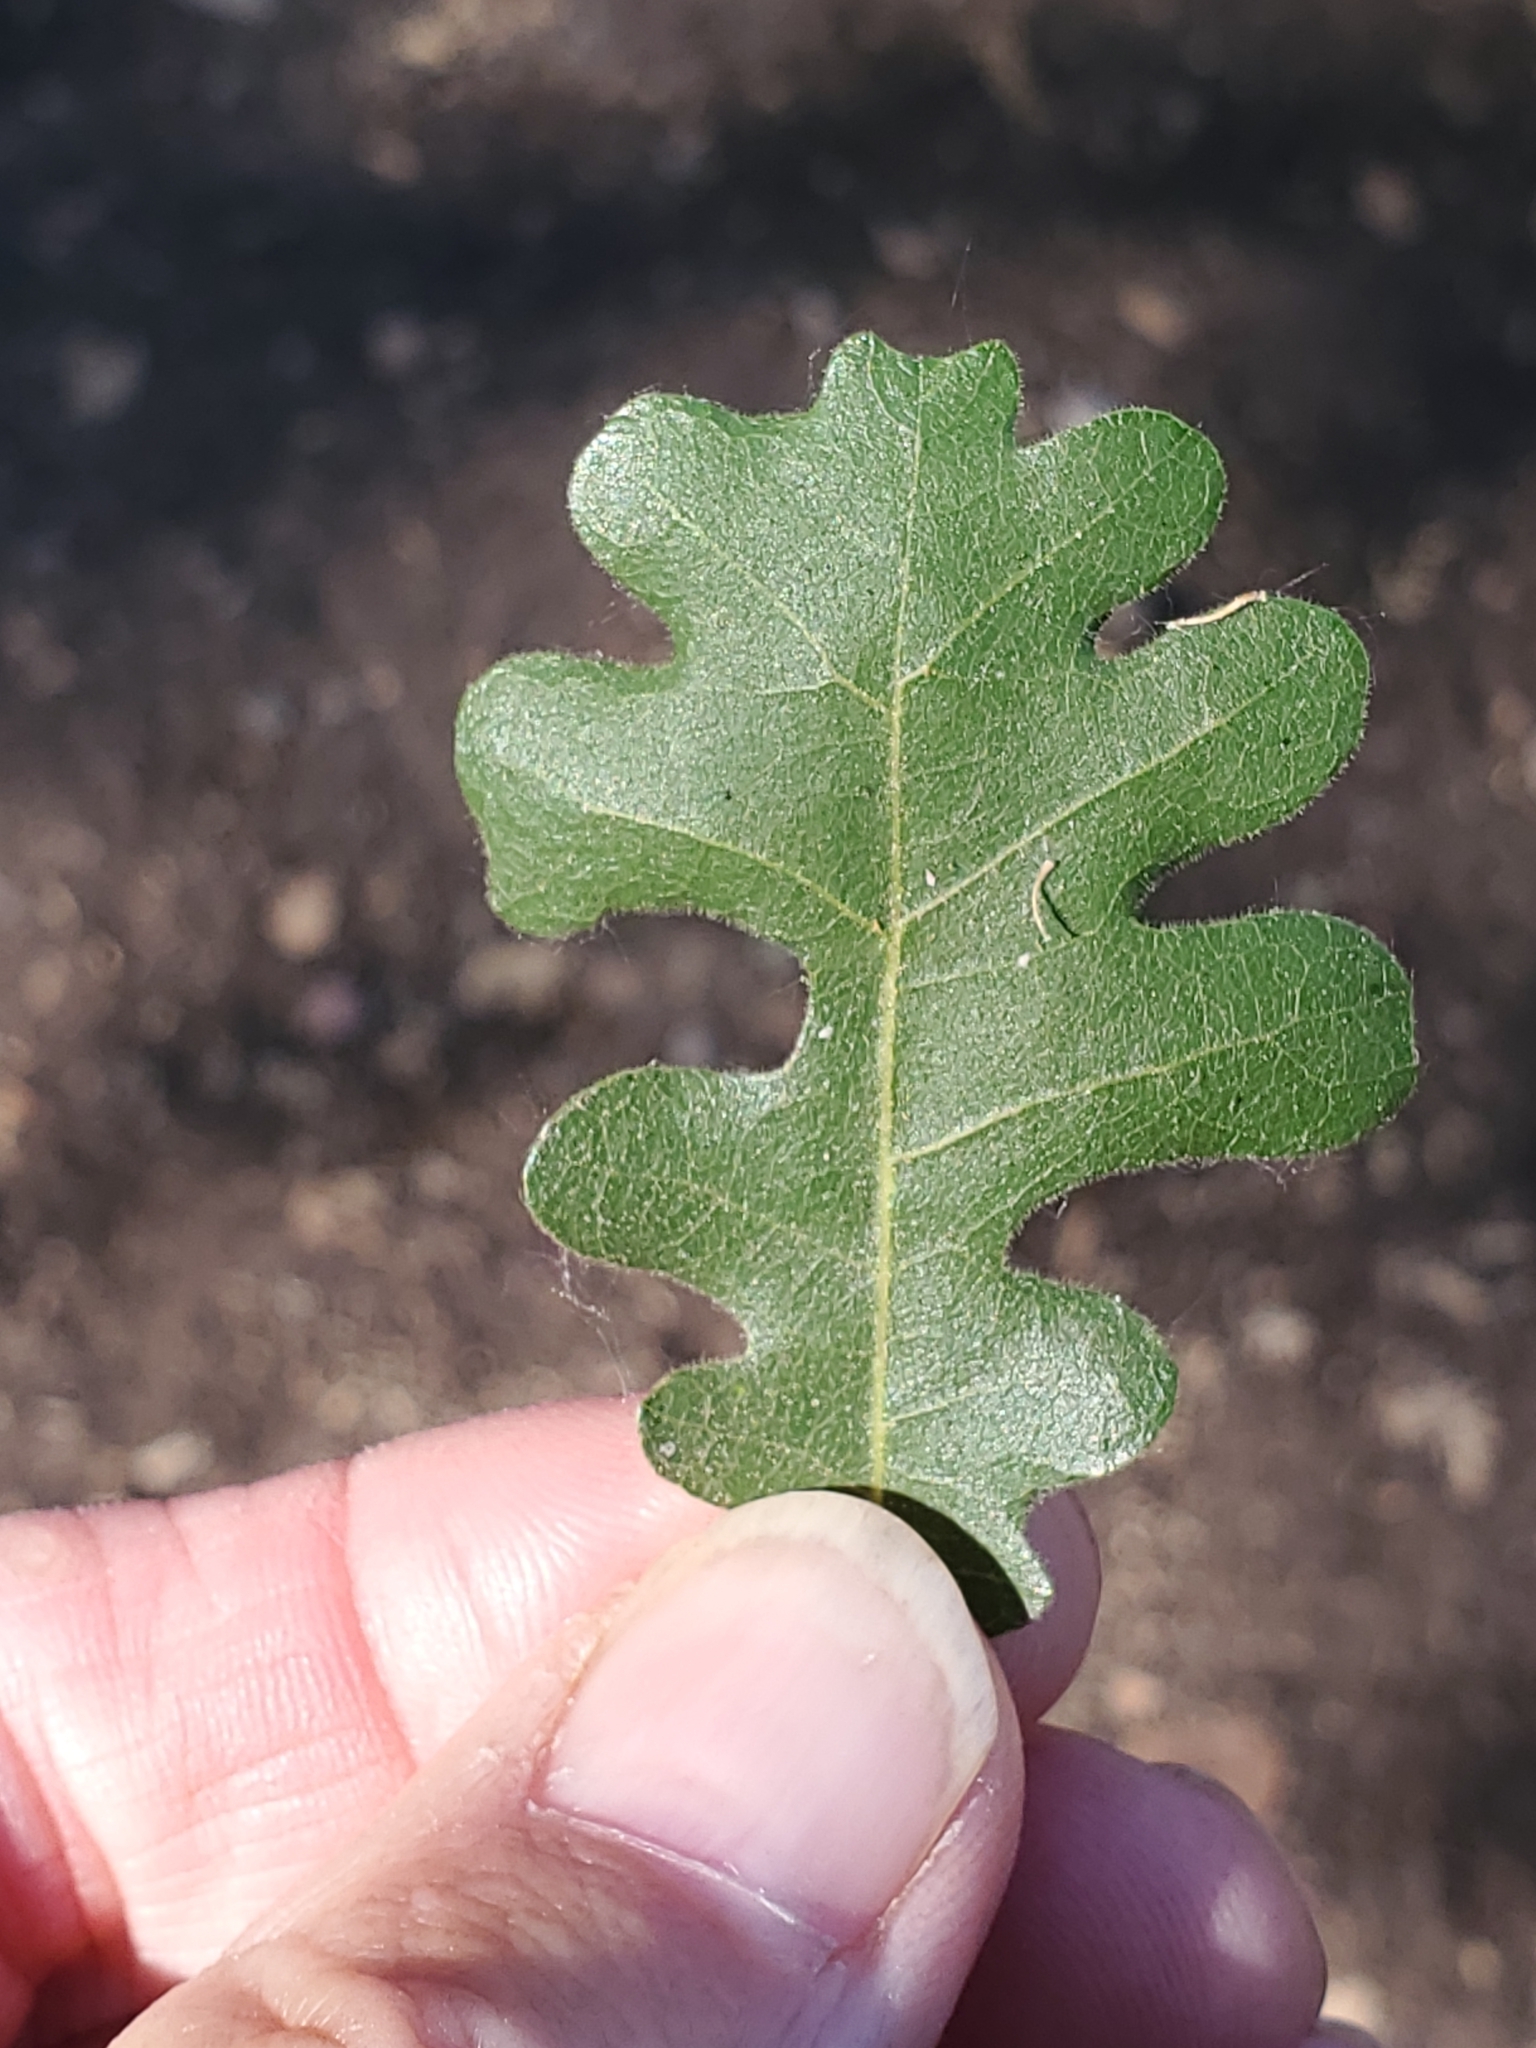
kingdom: Plantae
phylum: Tracheophyta
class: Magnoliopsida
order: Fagales
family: Fagaceae
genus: Quercus
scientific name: Quercus lobata
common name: Valley oak
